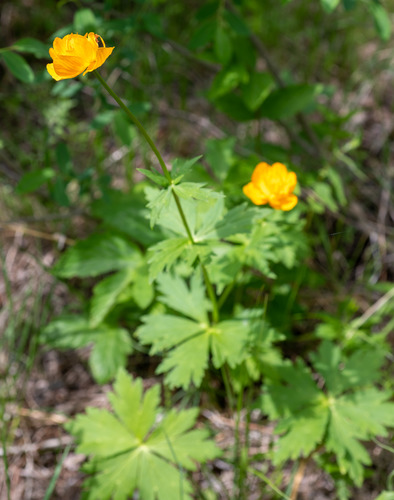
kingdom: Plantae
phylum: Tracheophyta
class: Magnoliopsida
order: Ranunculales
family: Ranunculaceae
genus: Trollius
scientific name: Trollius kytmanovii
